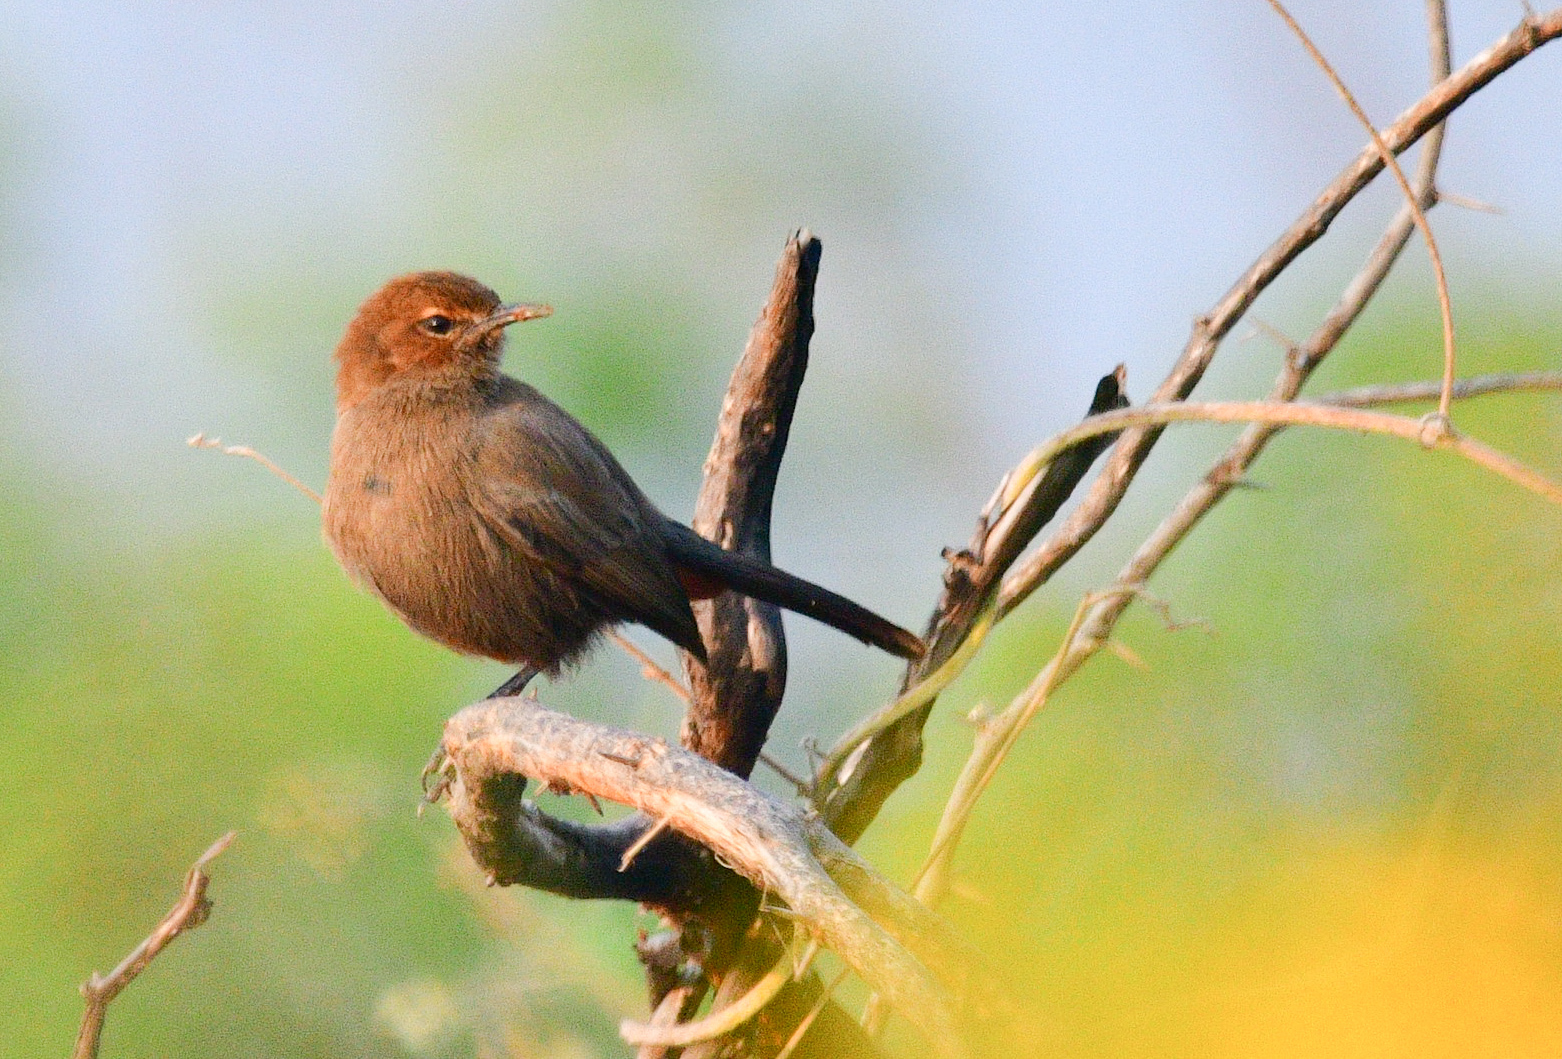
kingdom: Animalia
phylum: Chordata
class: Aves
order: Passeriformes
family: Muscicapidae
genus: Saxicoloides
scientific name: Saxicoloides fulicatus
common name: Indian robin
